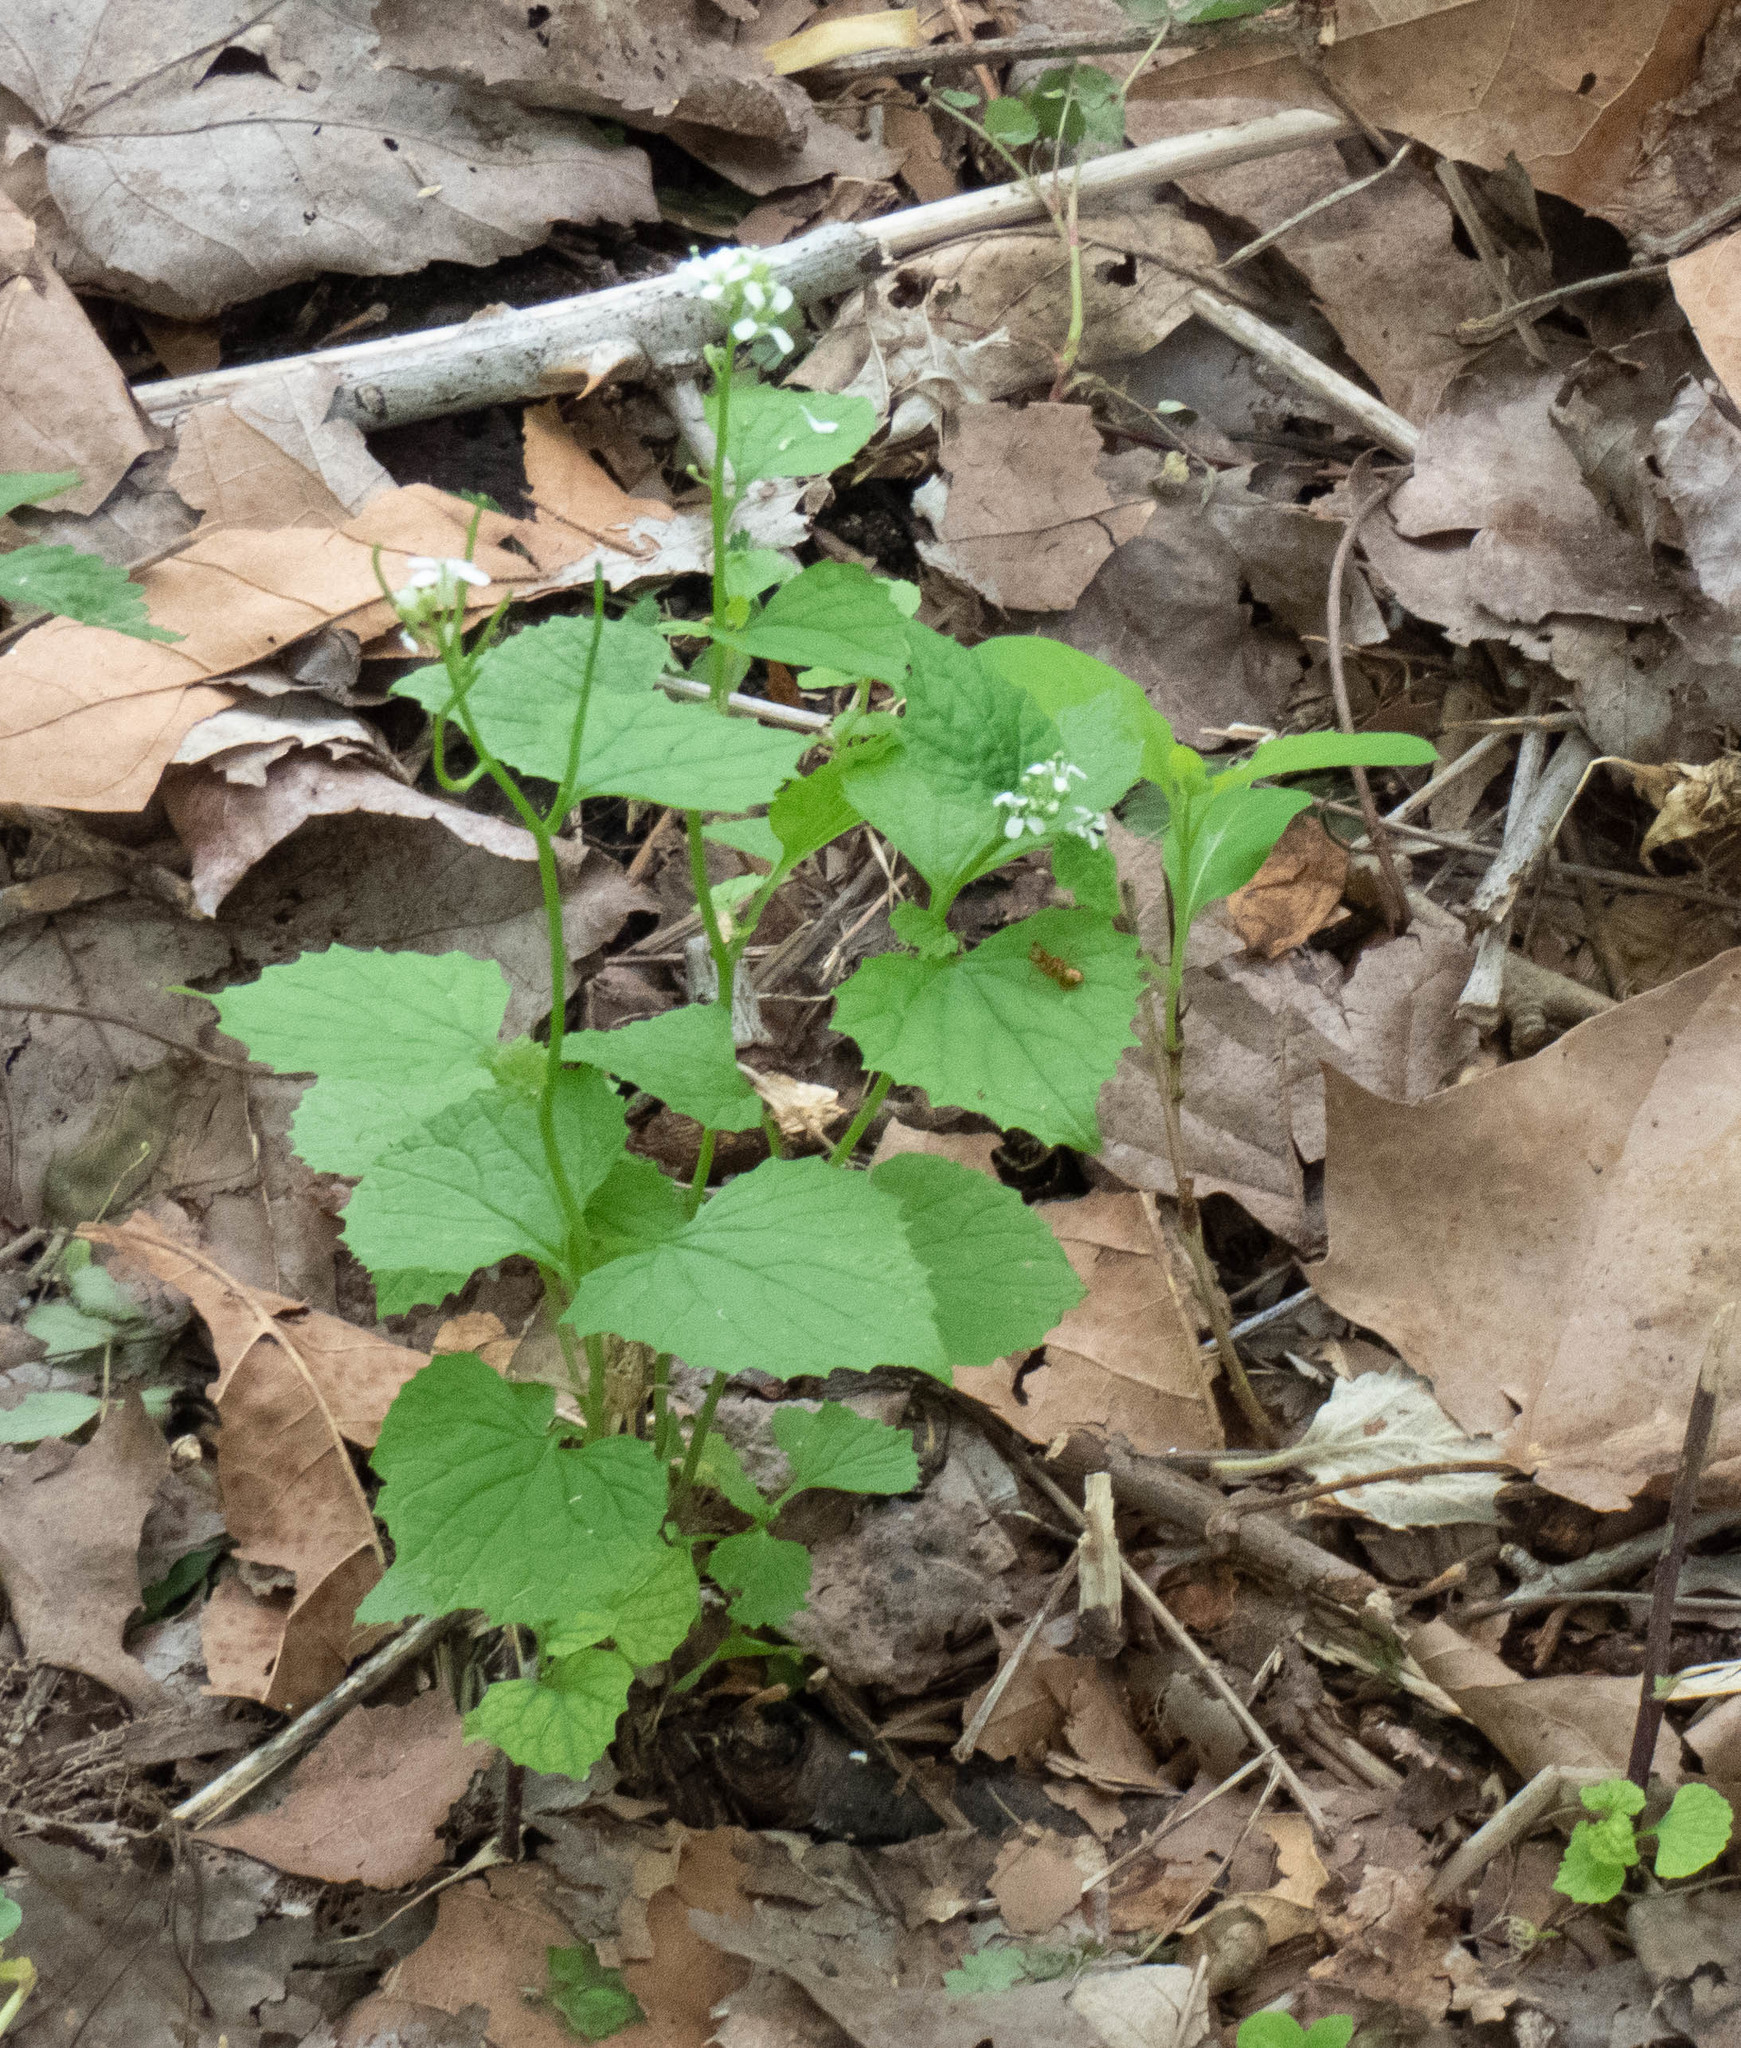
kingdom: Plantae
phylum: Tracheophyta
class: Magnoliopsida
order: Brassicales
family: Brassicaceae
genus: Alliaria
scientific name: Alliaria petiolata
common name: Garlic mustard
